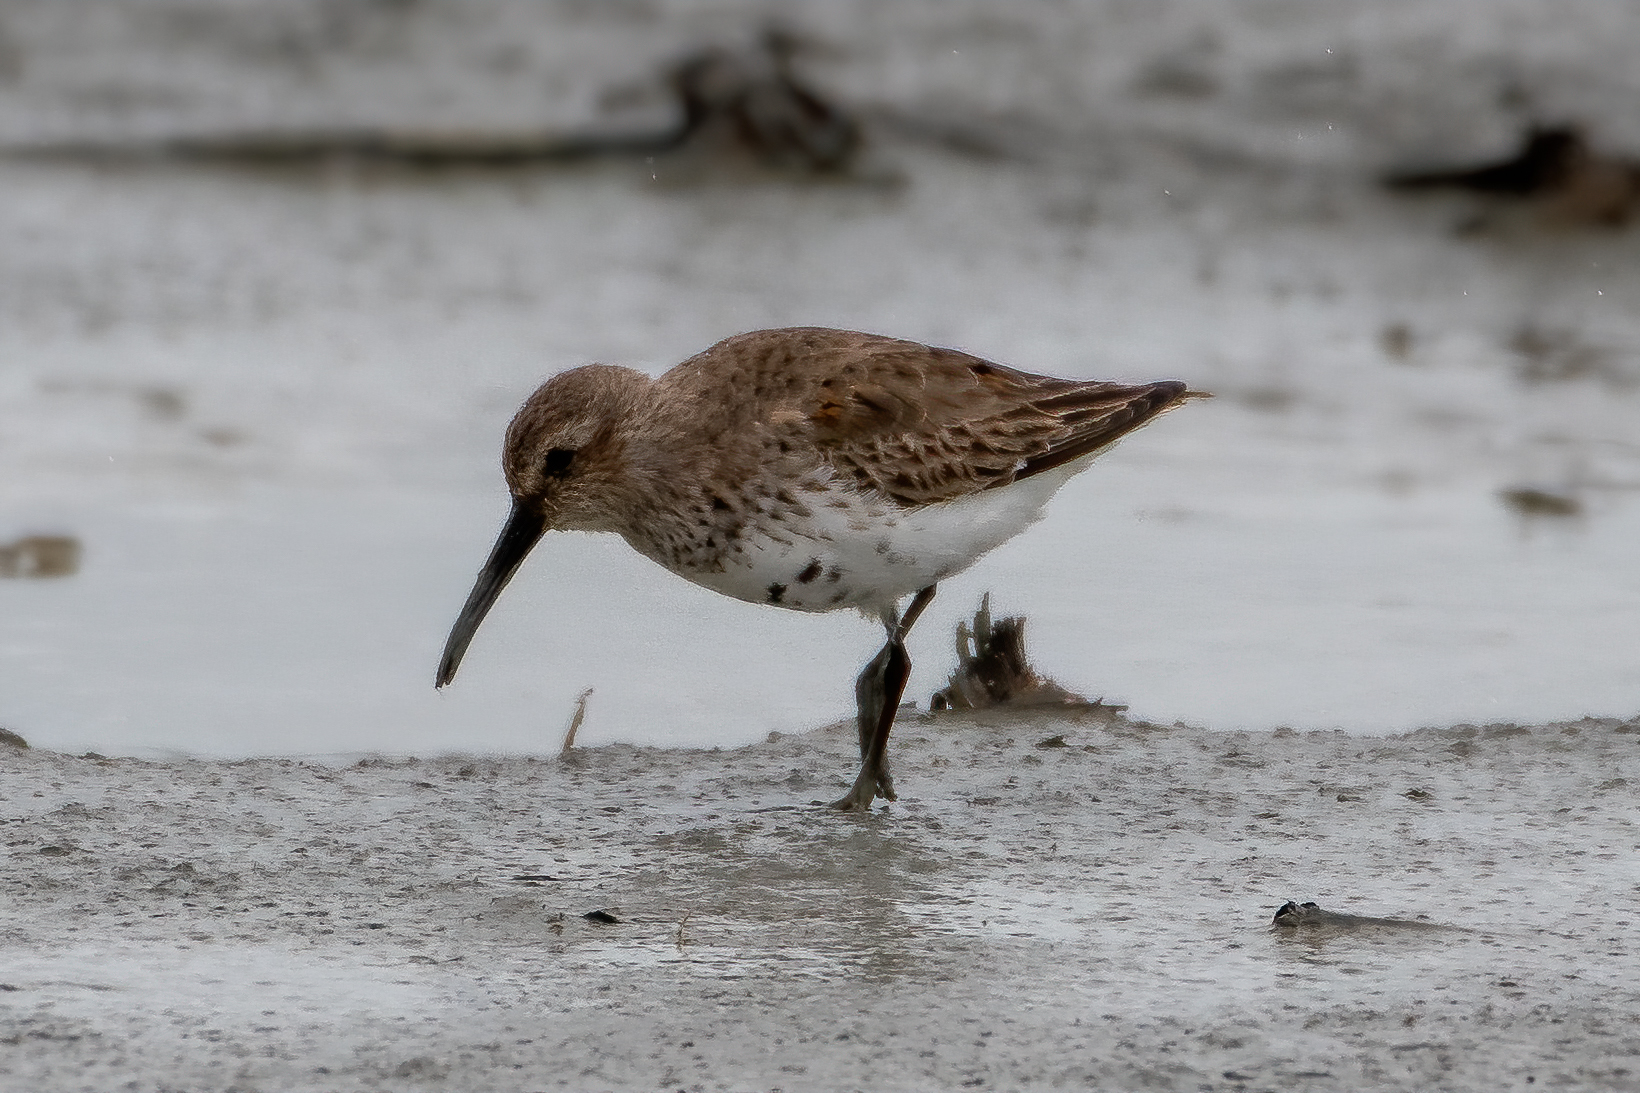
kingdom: Animalia
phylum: Chordata
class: Aves
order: Charadriiformes
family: Scolopacidae
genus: Calidris
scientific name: Calidris alpina
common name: Dunlin
